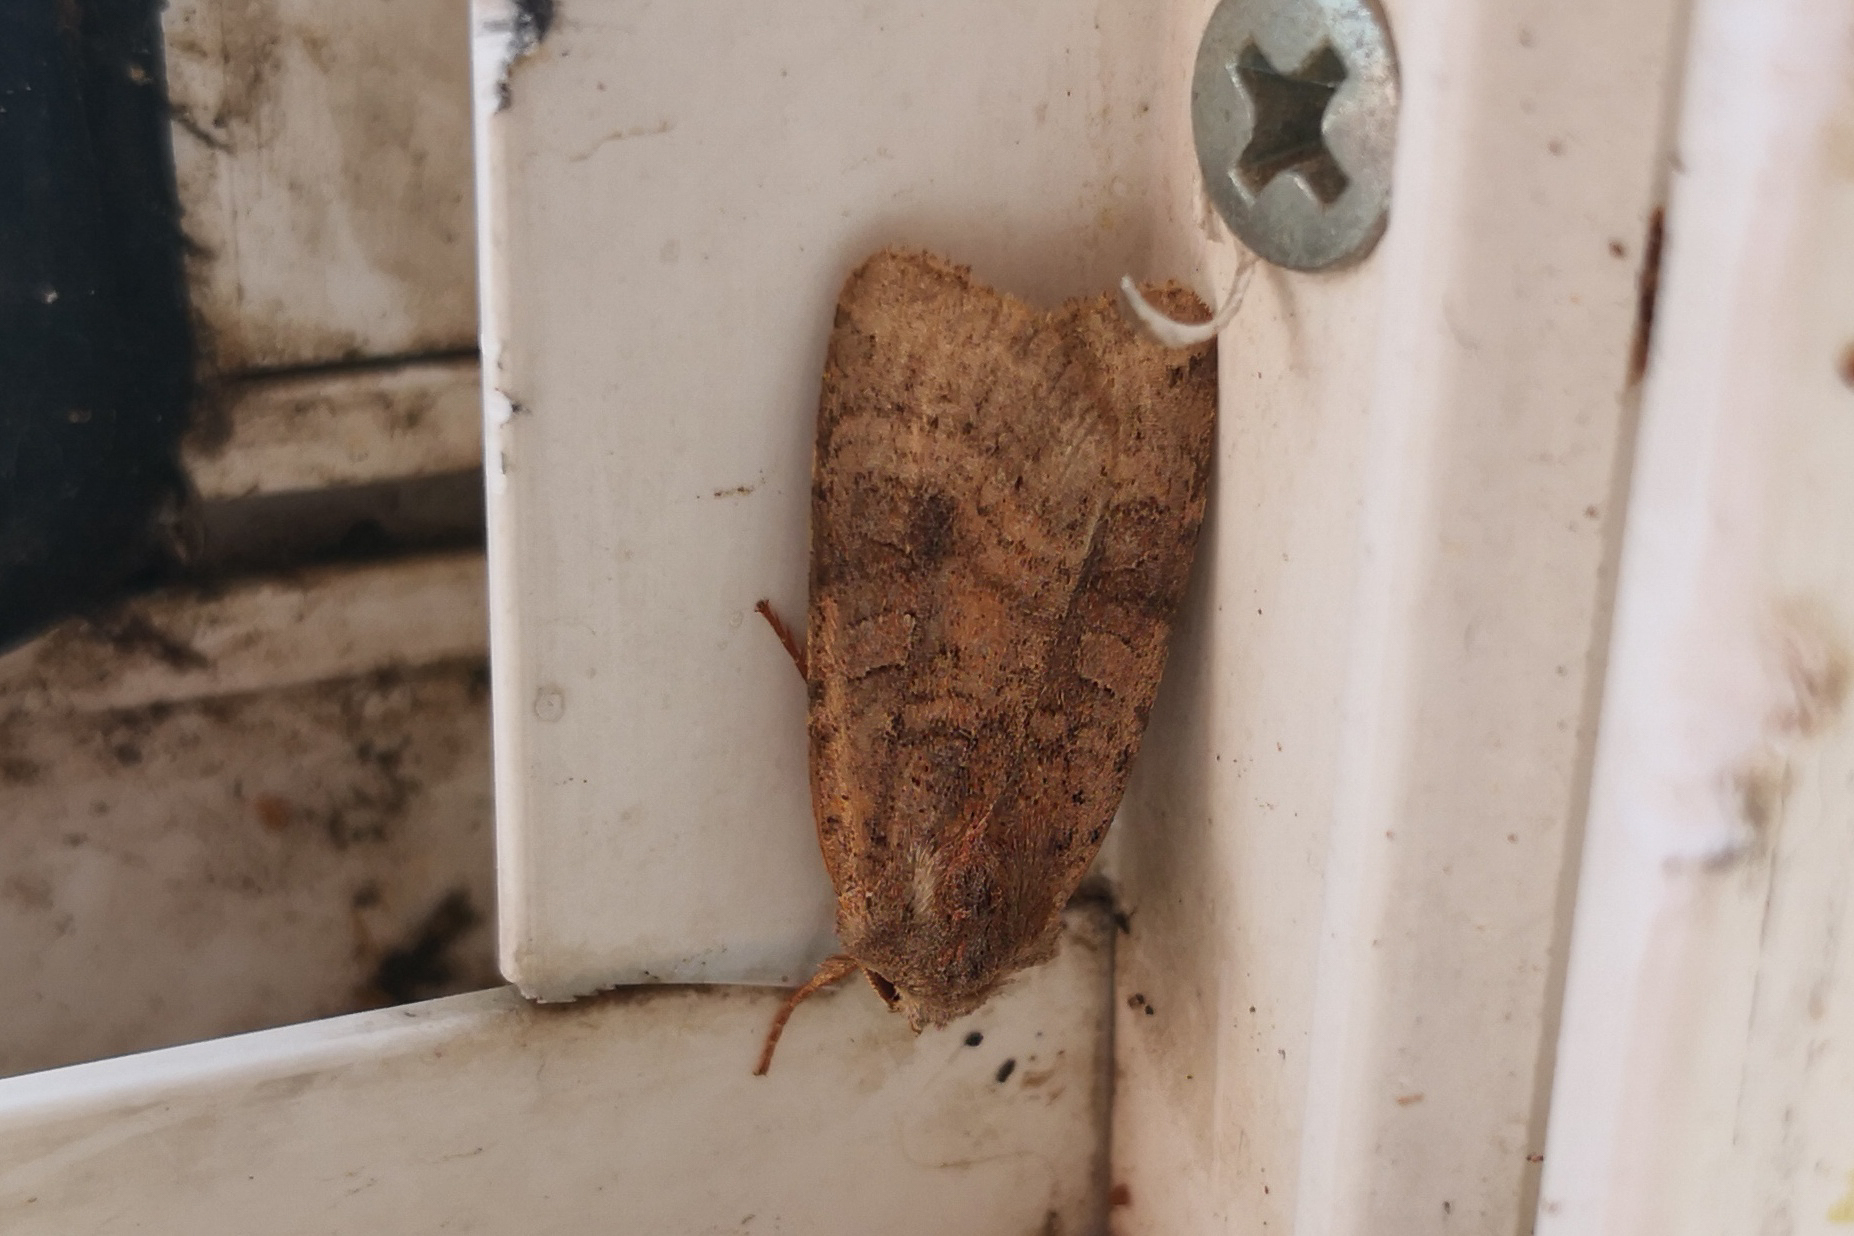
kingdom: Animalia
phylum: Arthropoda
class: Insecta
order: Lepidoptera
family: Noctuidae
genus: Xestia
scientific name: Xestia baja
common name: Dotted clay
